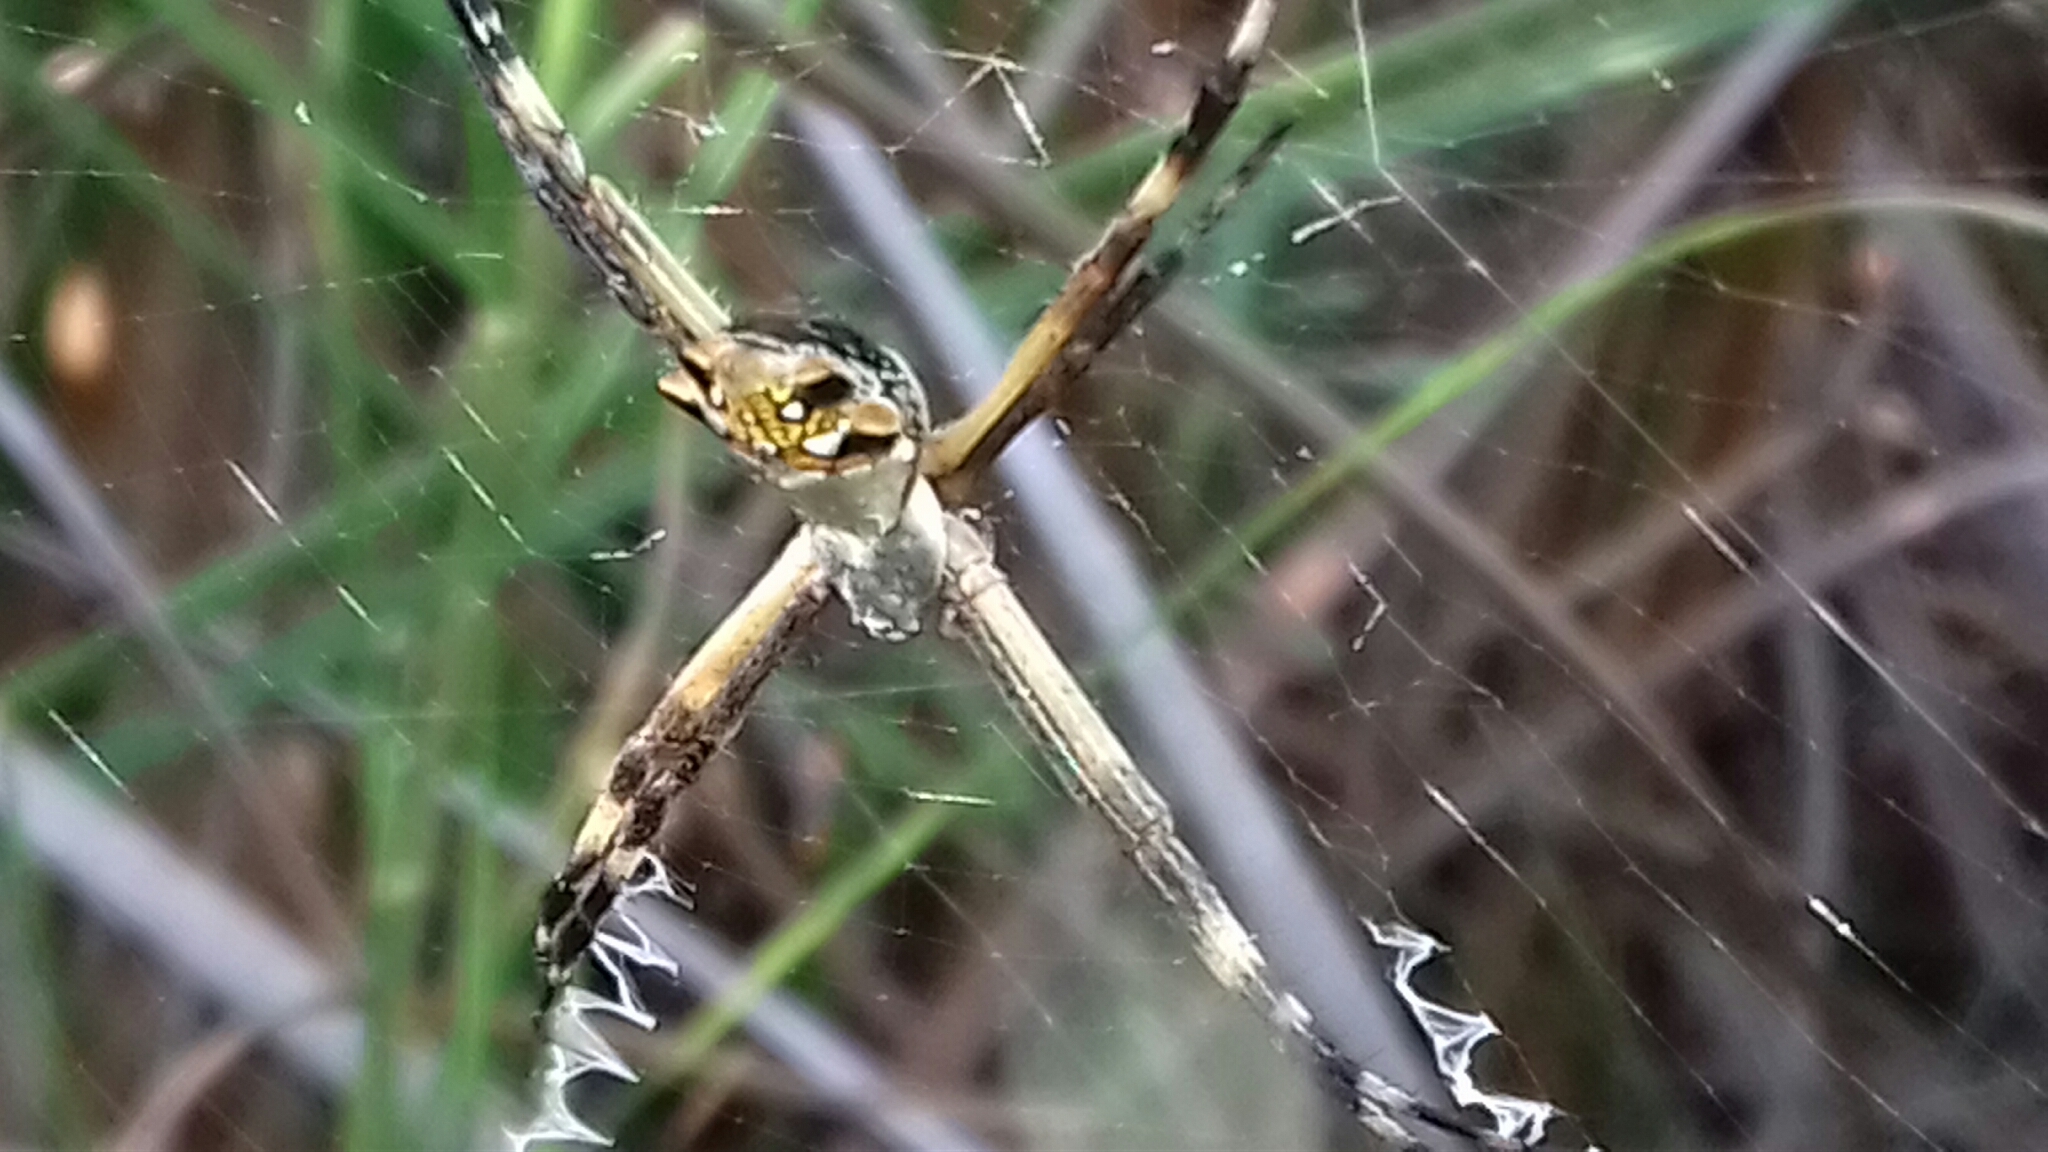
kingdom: Animalia
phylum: Arthropoda
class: Arachnida
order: Araneae
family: Araneidae
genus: Argiope
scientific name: Argiope argentata
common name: Orb weavers
